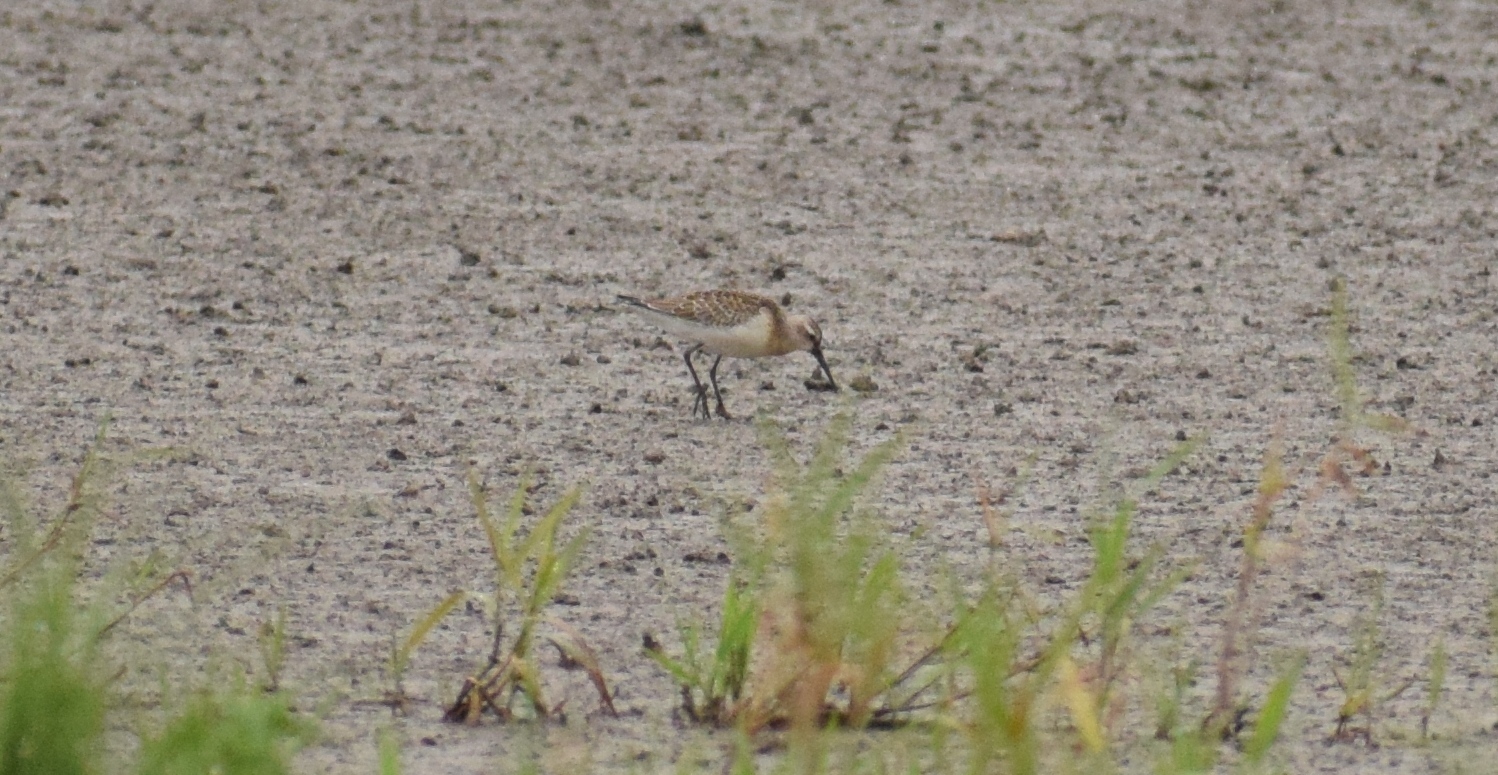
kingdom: Animalia
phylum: Chordata
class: Aves
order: Charadriiformes
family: Scolopacidae
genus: Calidris
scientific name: Calidris ferruginea
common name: Curlew sandpiper
